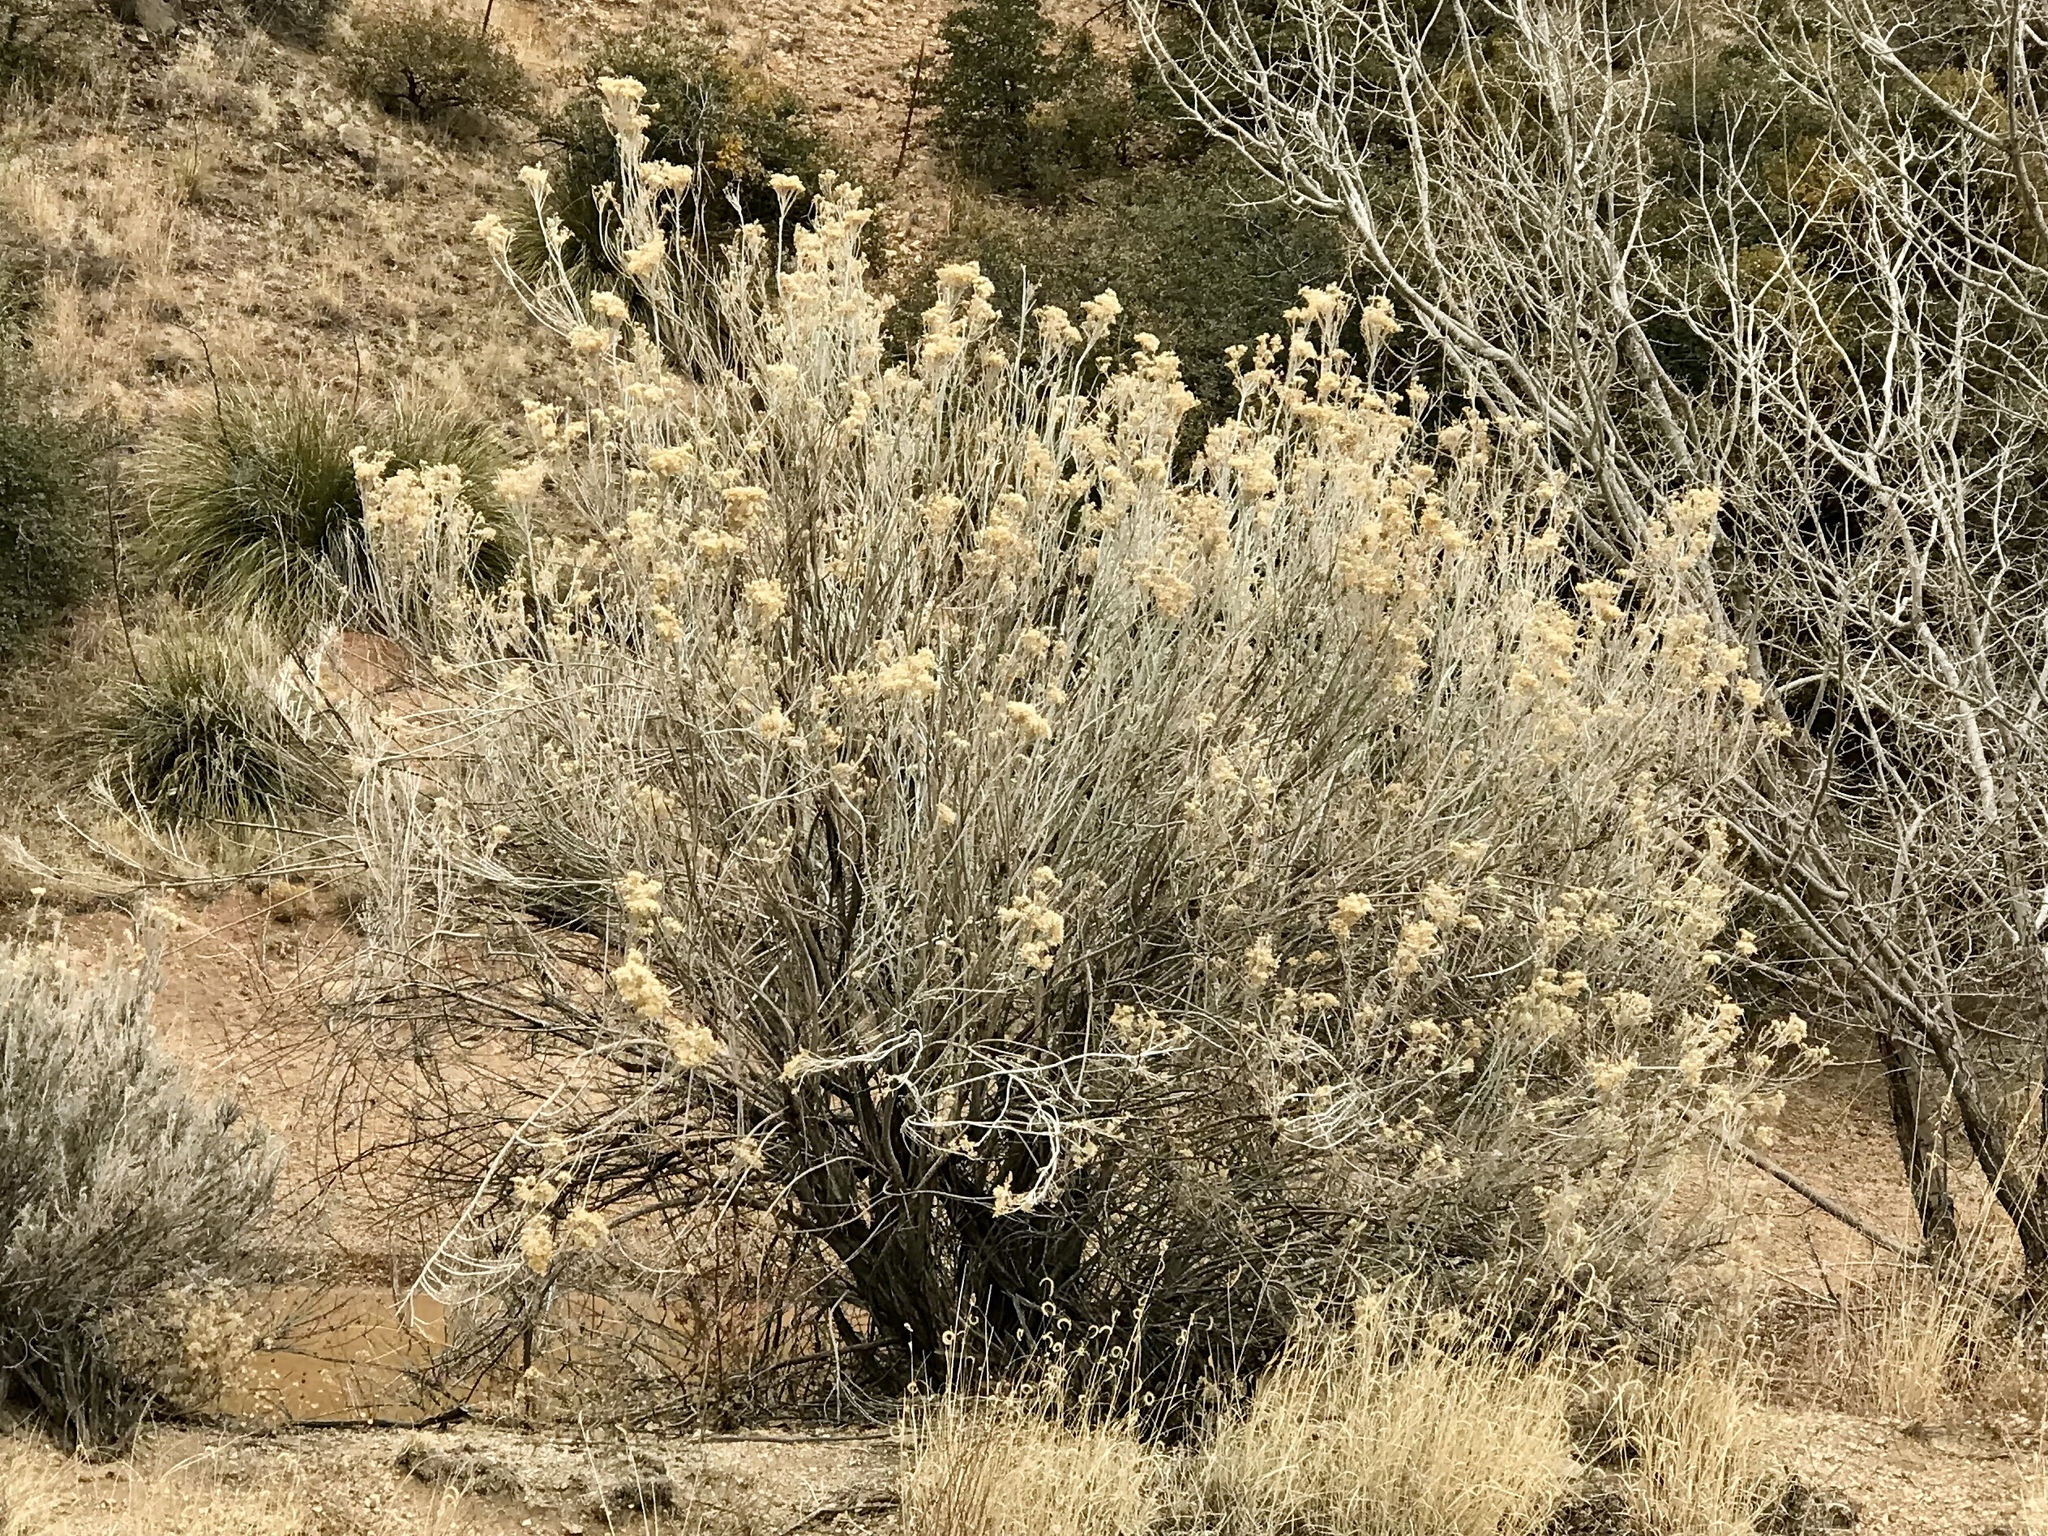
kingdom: Plantae
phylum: Tracheophyta
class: Magnoliopsida
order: Asterales
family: Asteraceae
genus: Ericameria
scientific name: Ericameria nauseosa
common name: Rubber rabbitbrush
